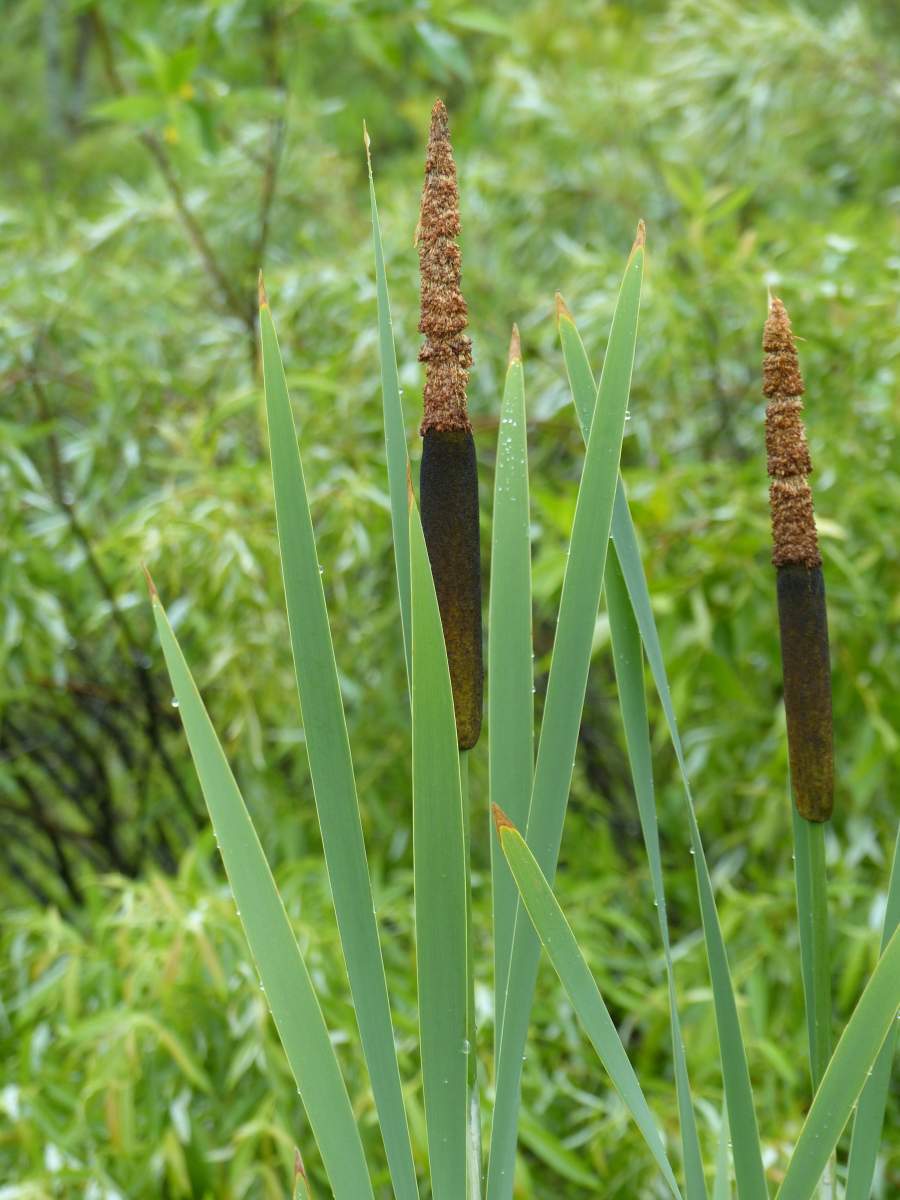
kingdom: Plantae
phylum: Tracheophyta
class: Liliopsida
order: Poales
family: Typhaceae
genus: Typha
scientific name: Typha latifolia
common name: Broadleaf cattail
